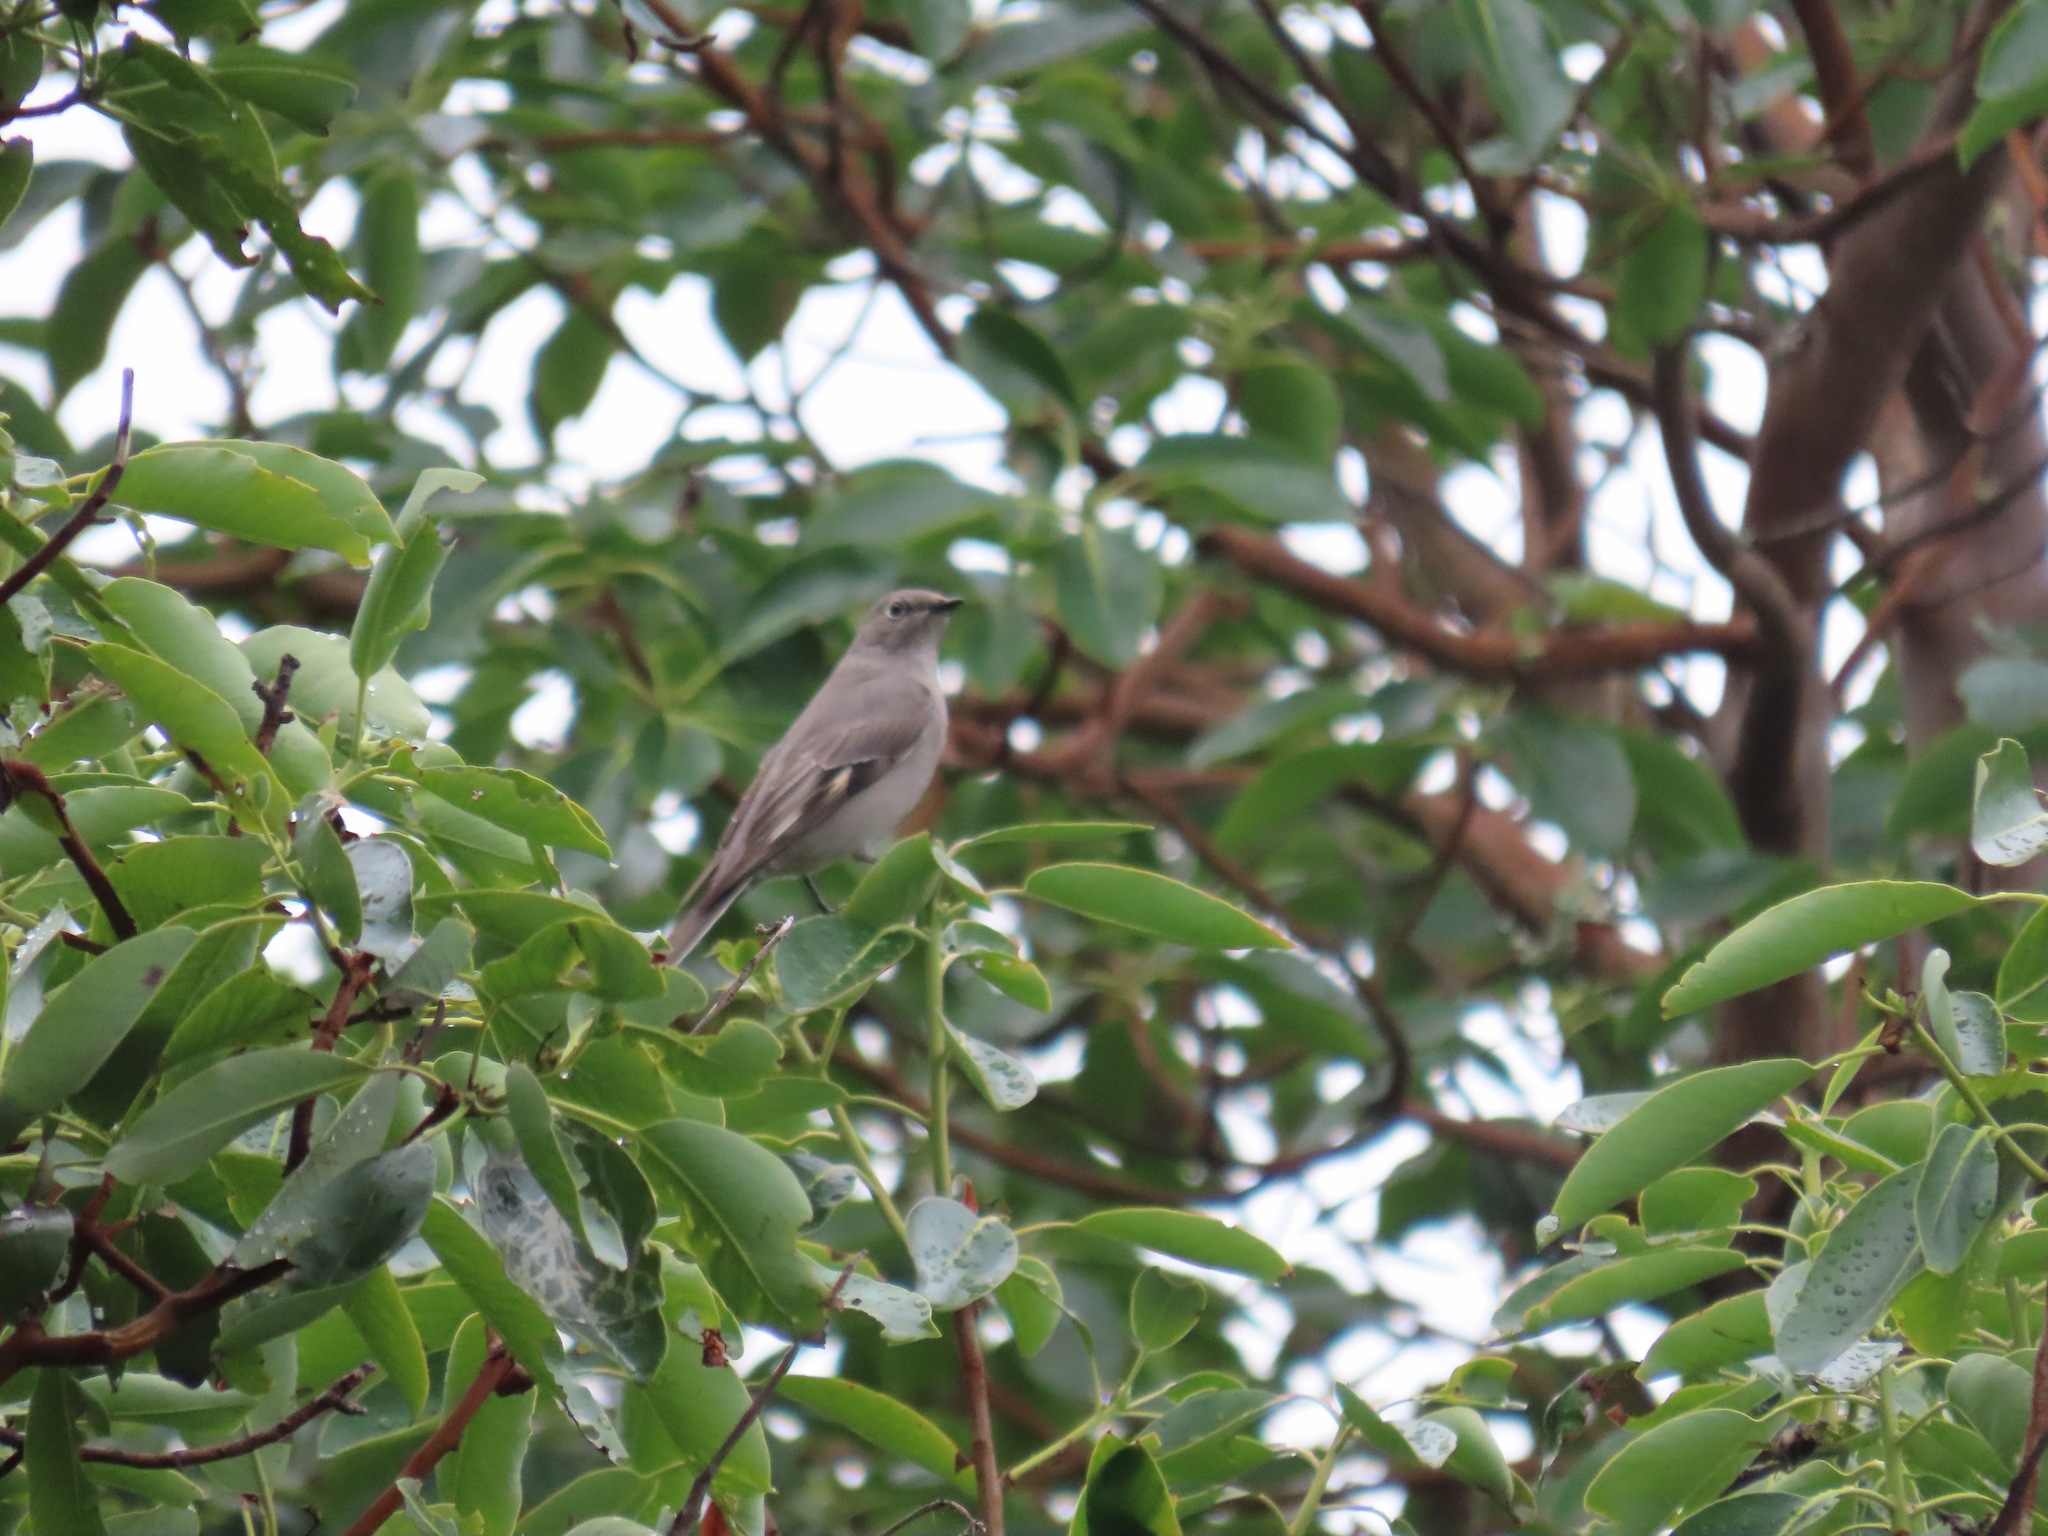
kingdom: Animalia
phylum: Chordata
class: Aves
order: Passeriformes
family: Turdidae
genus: Myadestes
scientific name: Myadestes townsendi
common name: Townsend's solitaire
